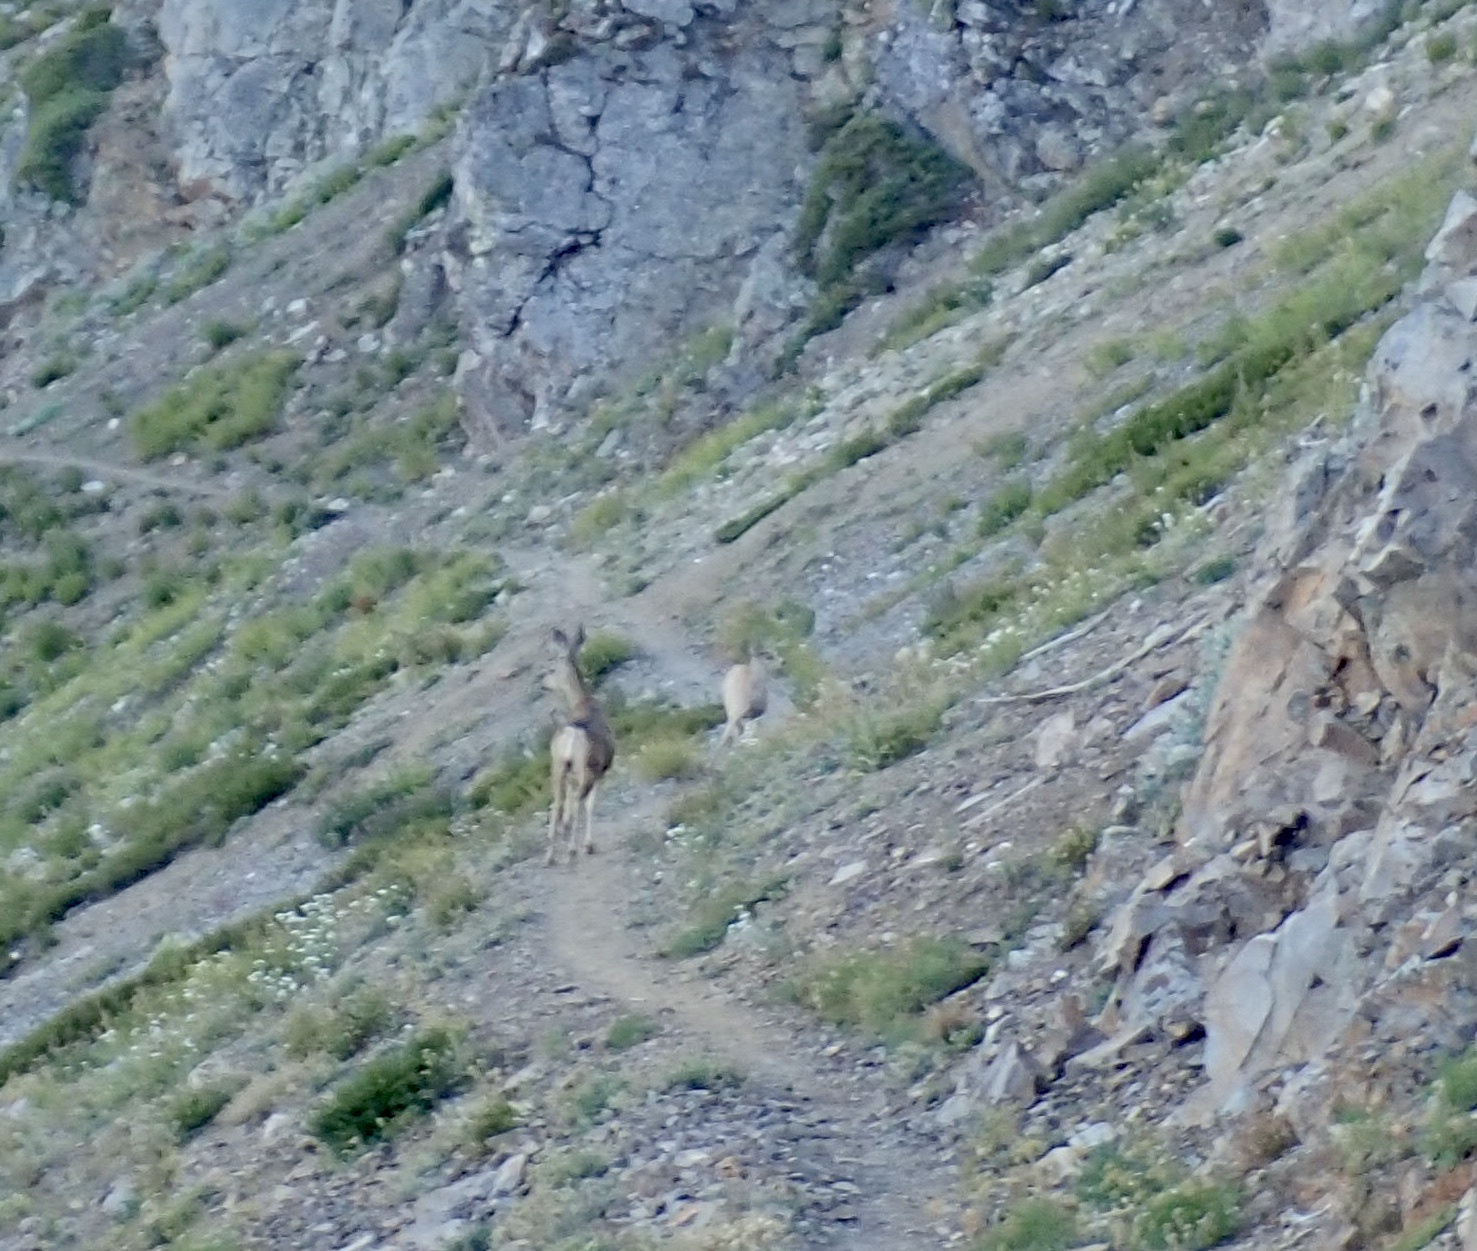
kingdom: Animalia
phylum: Chordata
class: Mammalia
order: Artiodactyla
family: Cervidae
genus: Odocoileus
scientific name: Odocoileus hemionus
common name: Mule deer
